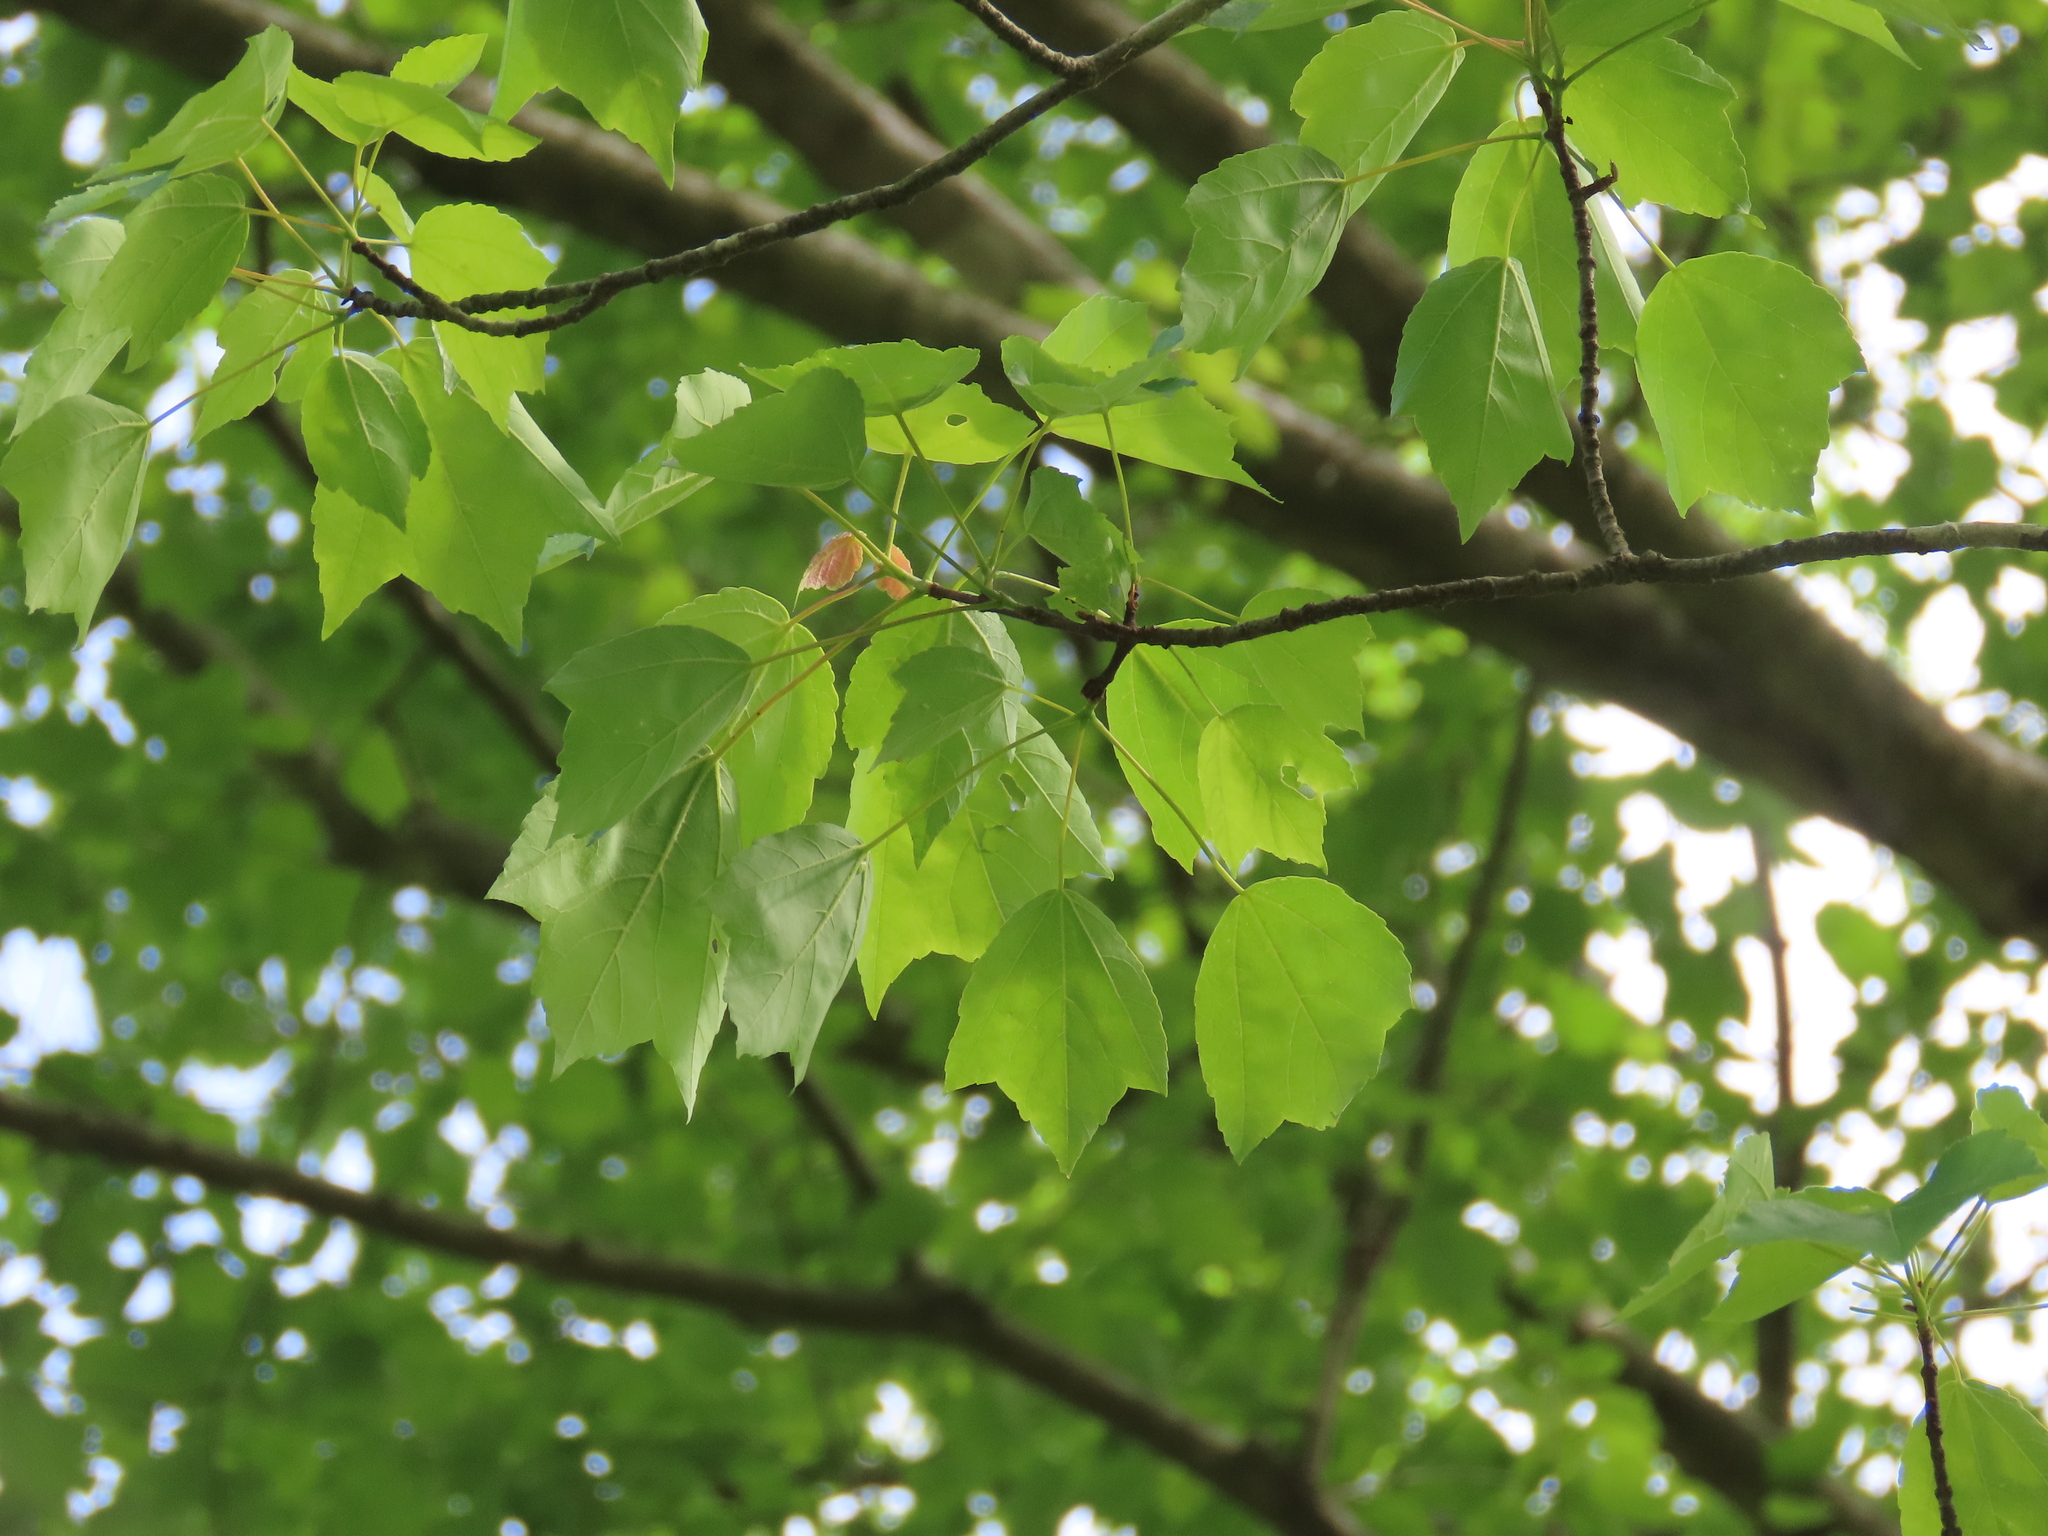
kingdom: Plantae
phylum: Tracheophyta
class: Magnoliopsida
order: Sapindales
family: Sapindaceae
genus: Acer
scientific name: Acer rubrum
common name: Red maple
